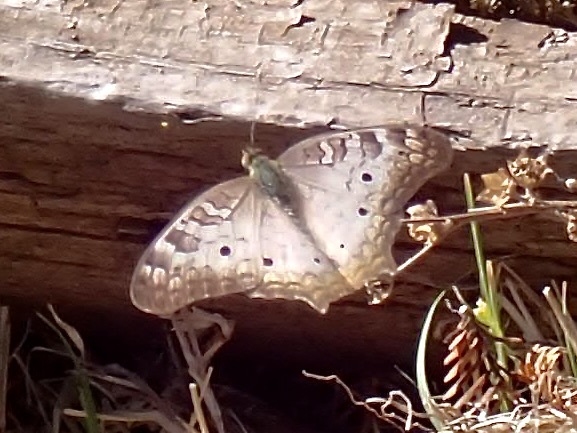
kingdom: Animalia
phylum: Arthropoda
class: Insecta
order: Lepidoptera
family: Nymphalidae
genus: Anartia
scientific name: Anartia jatrophae
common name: White peacock
